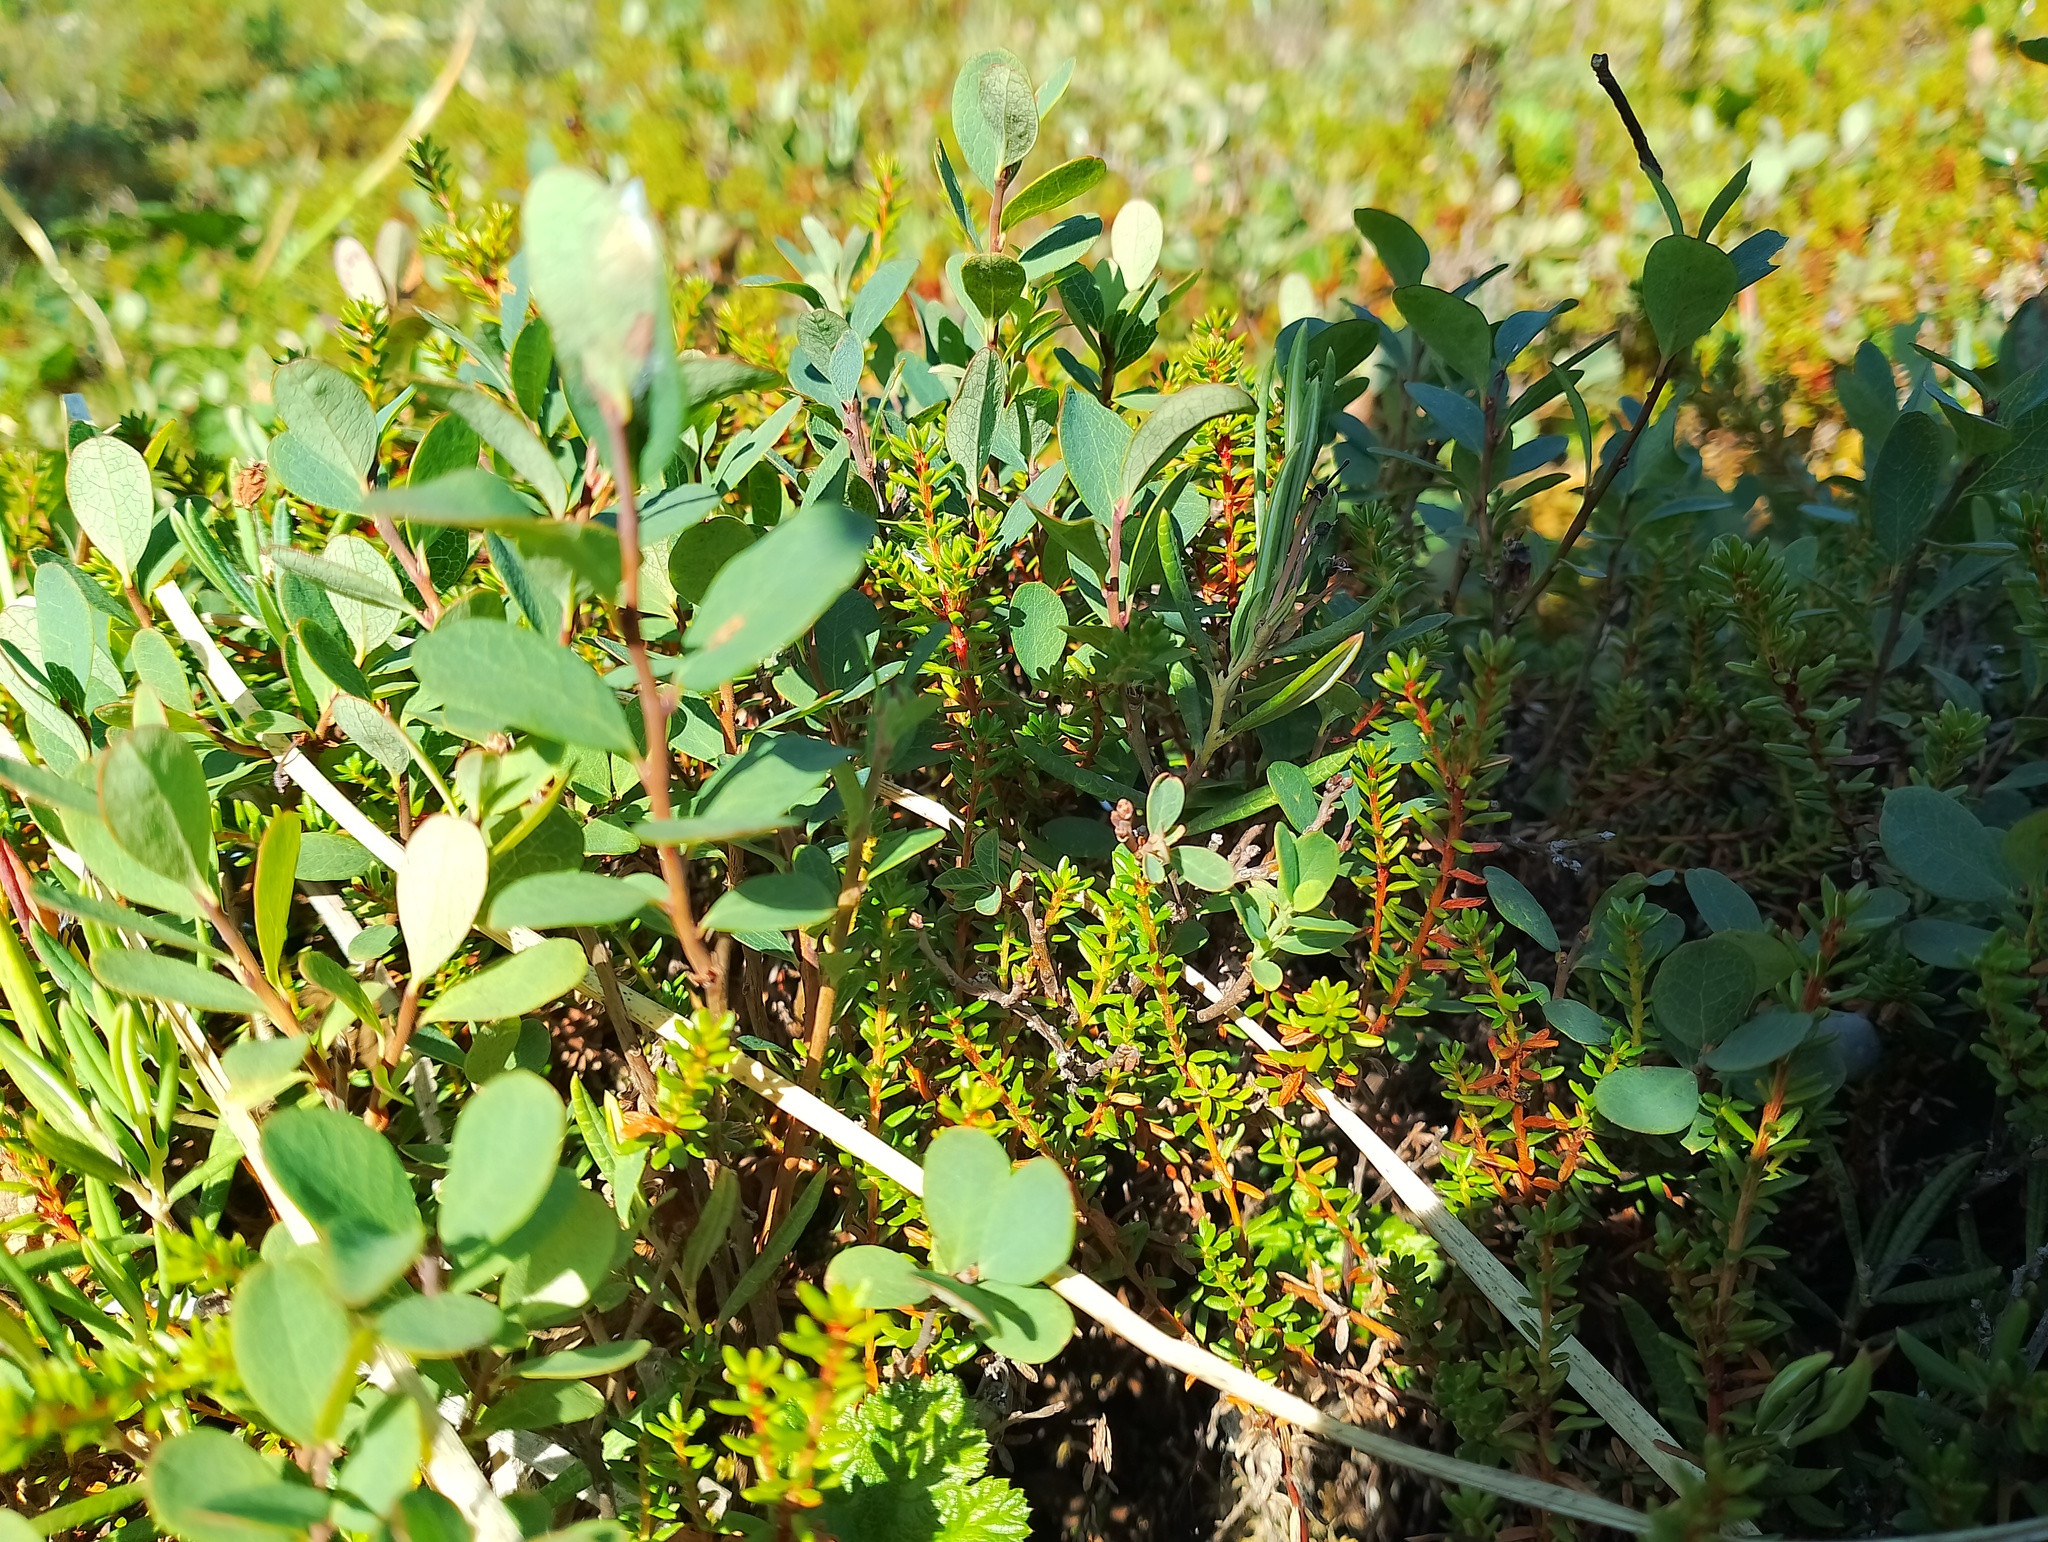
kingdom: Plantae
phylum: Tracheophyta
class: Magnoliopsida
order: Ericales
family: Ericaceae
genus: Vaccinium
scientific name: Vaccinium uliginosum
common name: Bog bilberry
